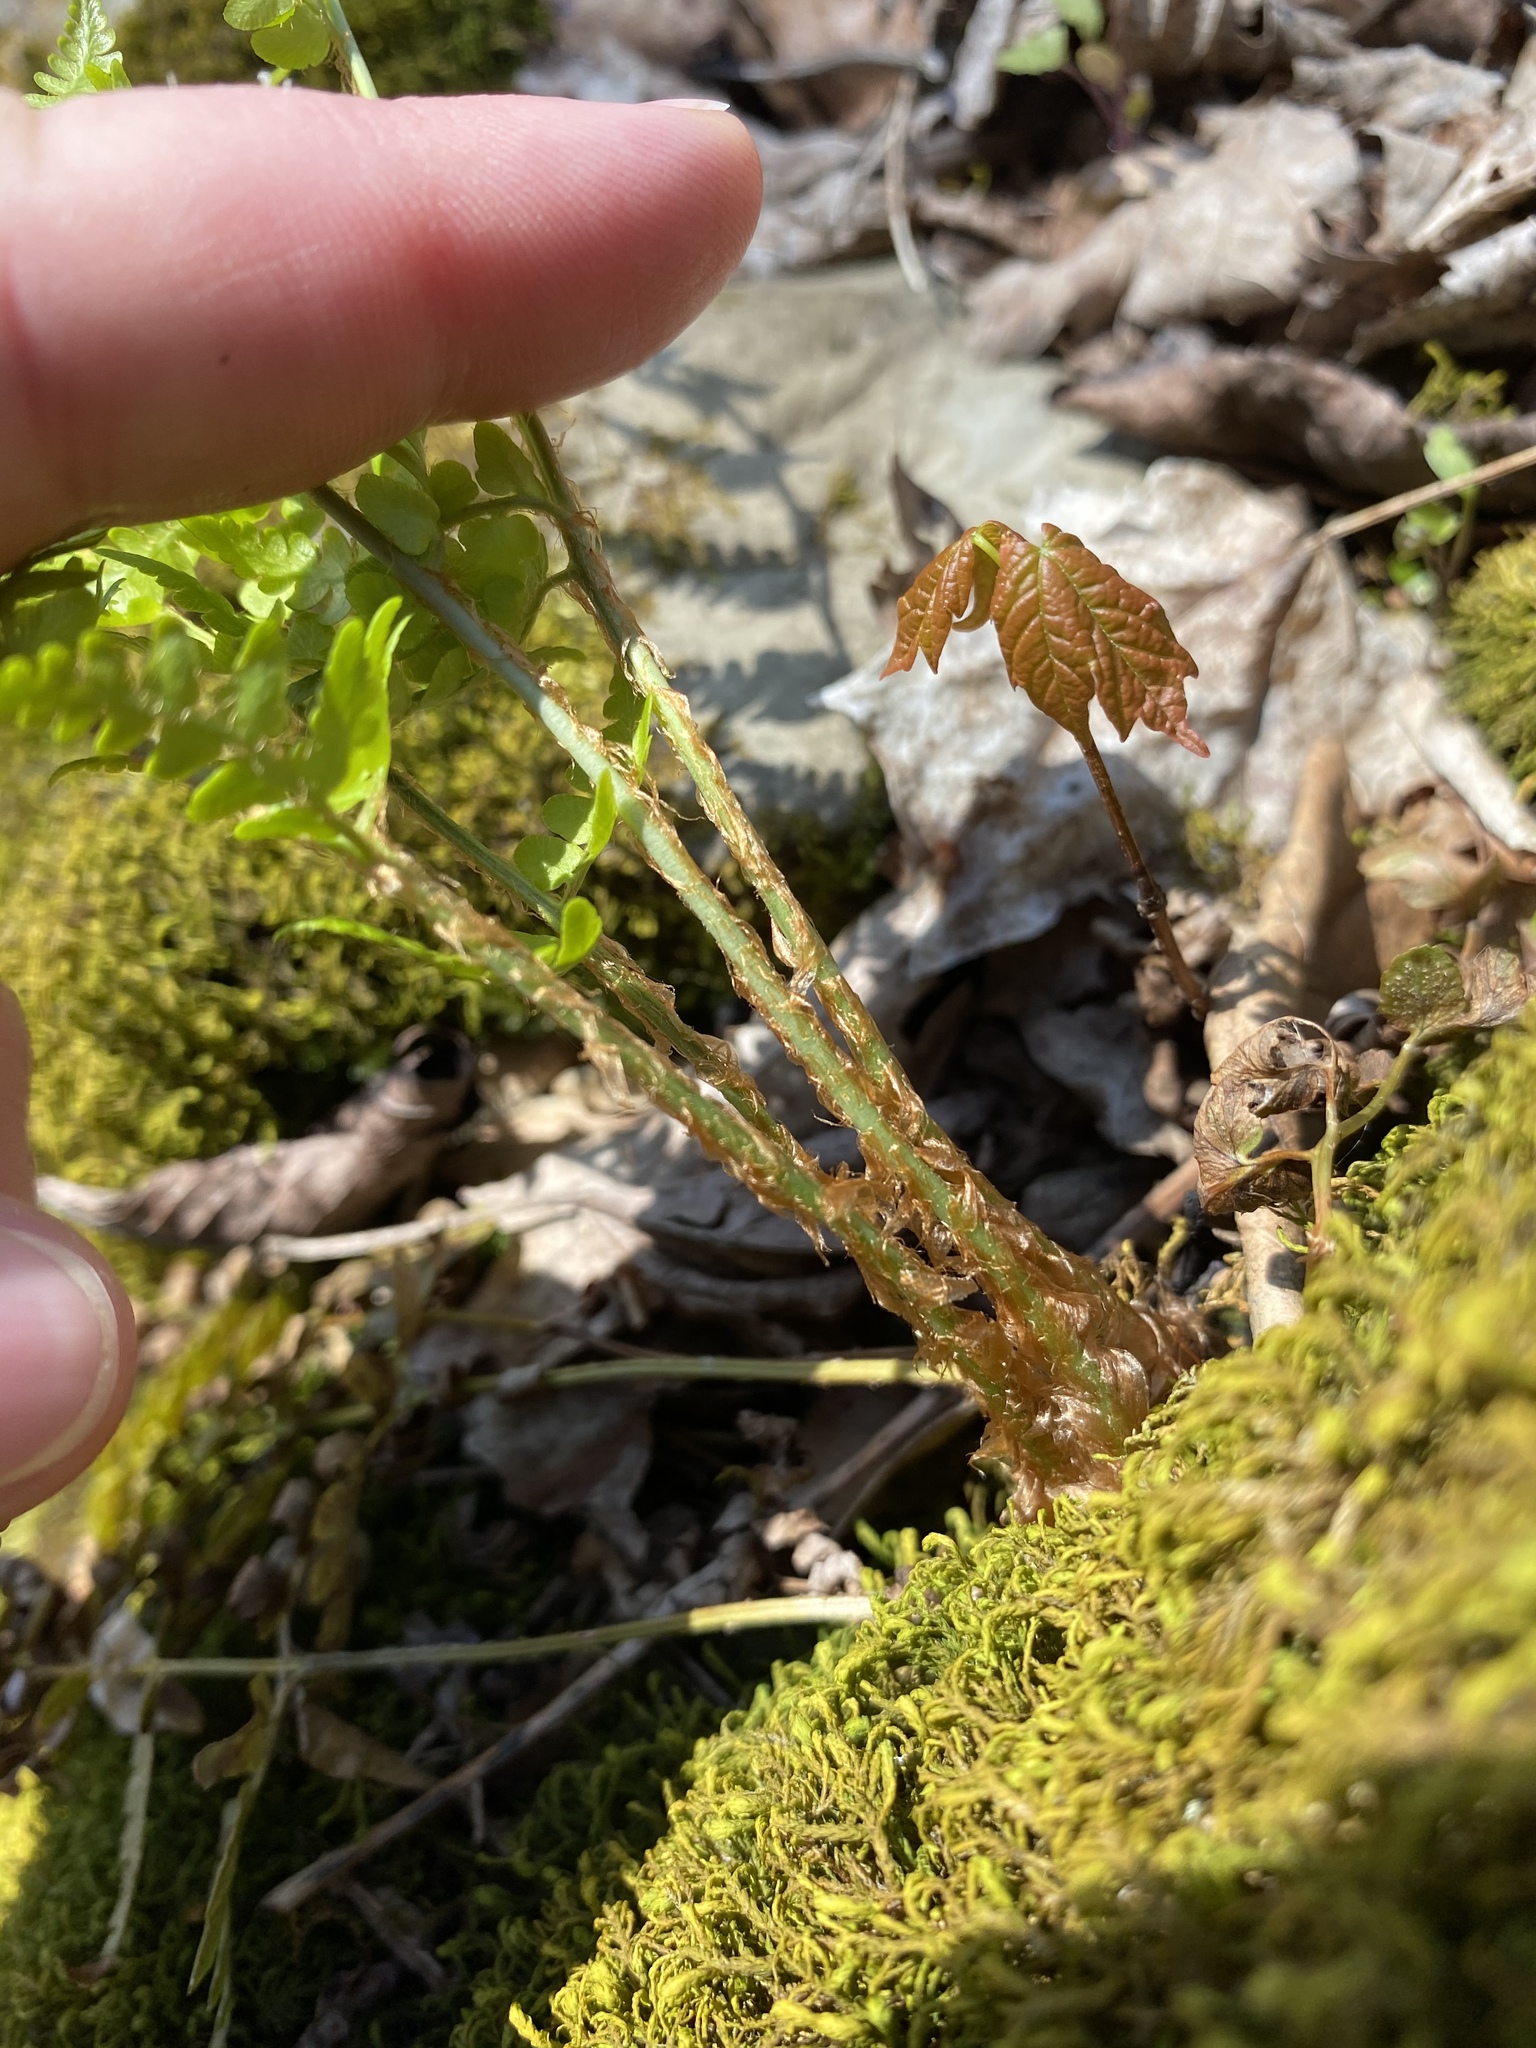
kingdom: Plantae
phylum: Tracheophyta
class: Polypodiopsida
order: Polypodiales
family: Dryopteridaceae
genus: Dryopteris
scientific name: Dryopteris marginalis
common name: Marginal wood fern
